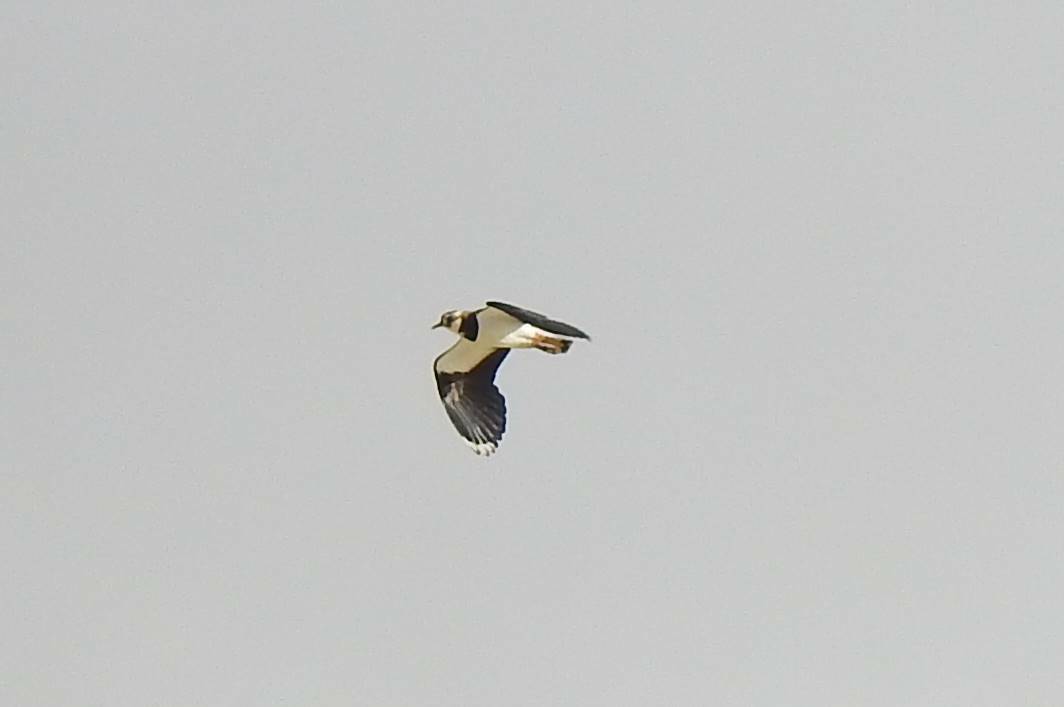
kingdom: Animalia
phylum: Chordata
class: Aves
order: Charadriiformes
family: Charadriidae
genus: Vanellus
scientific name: Vanellus vanellus
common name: Northern lapwing
